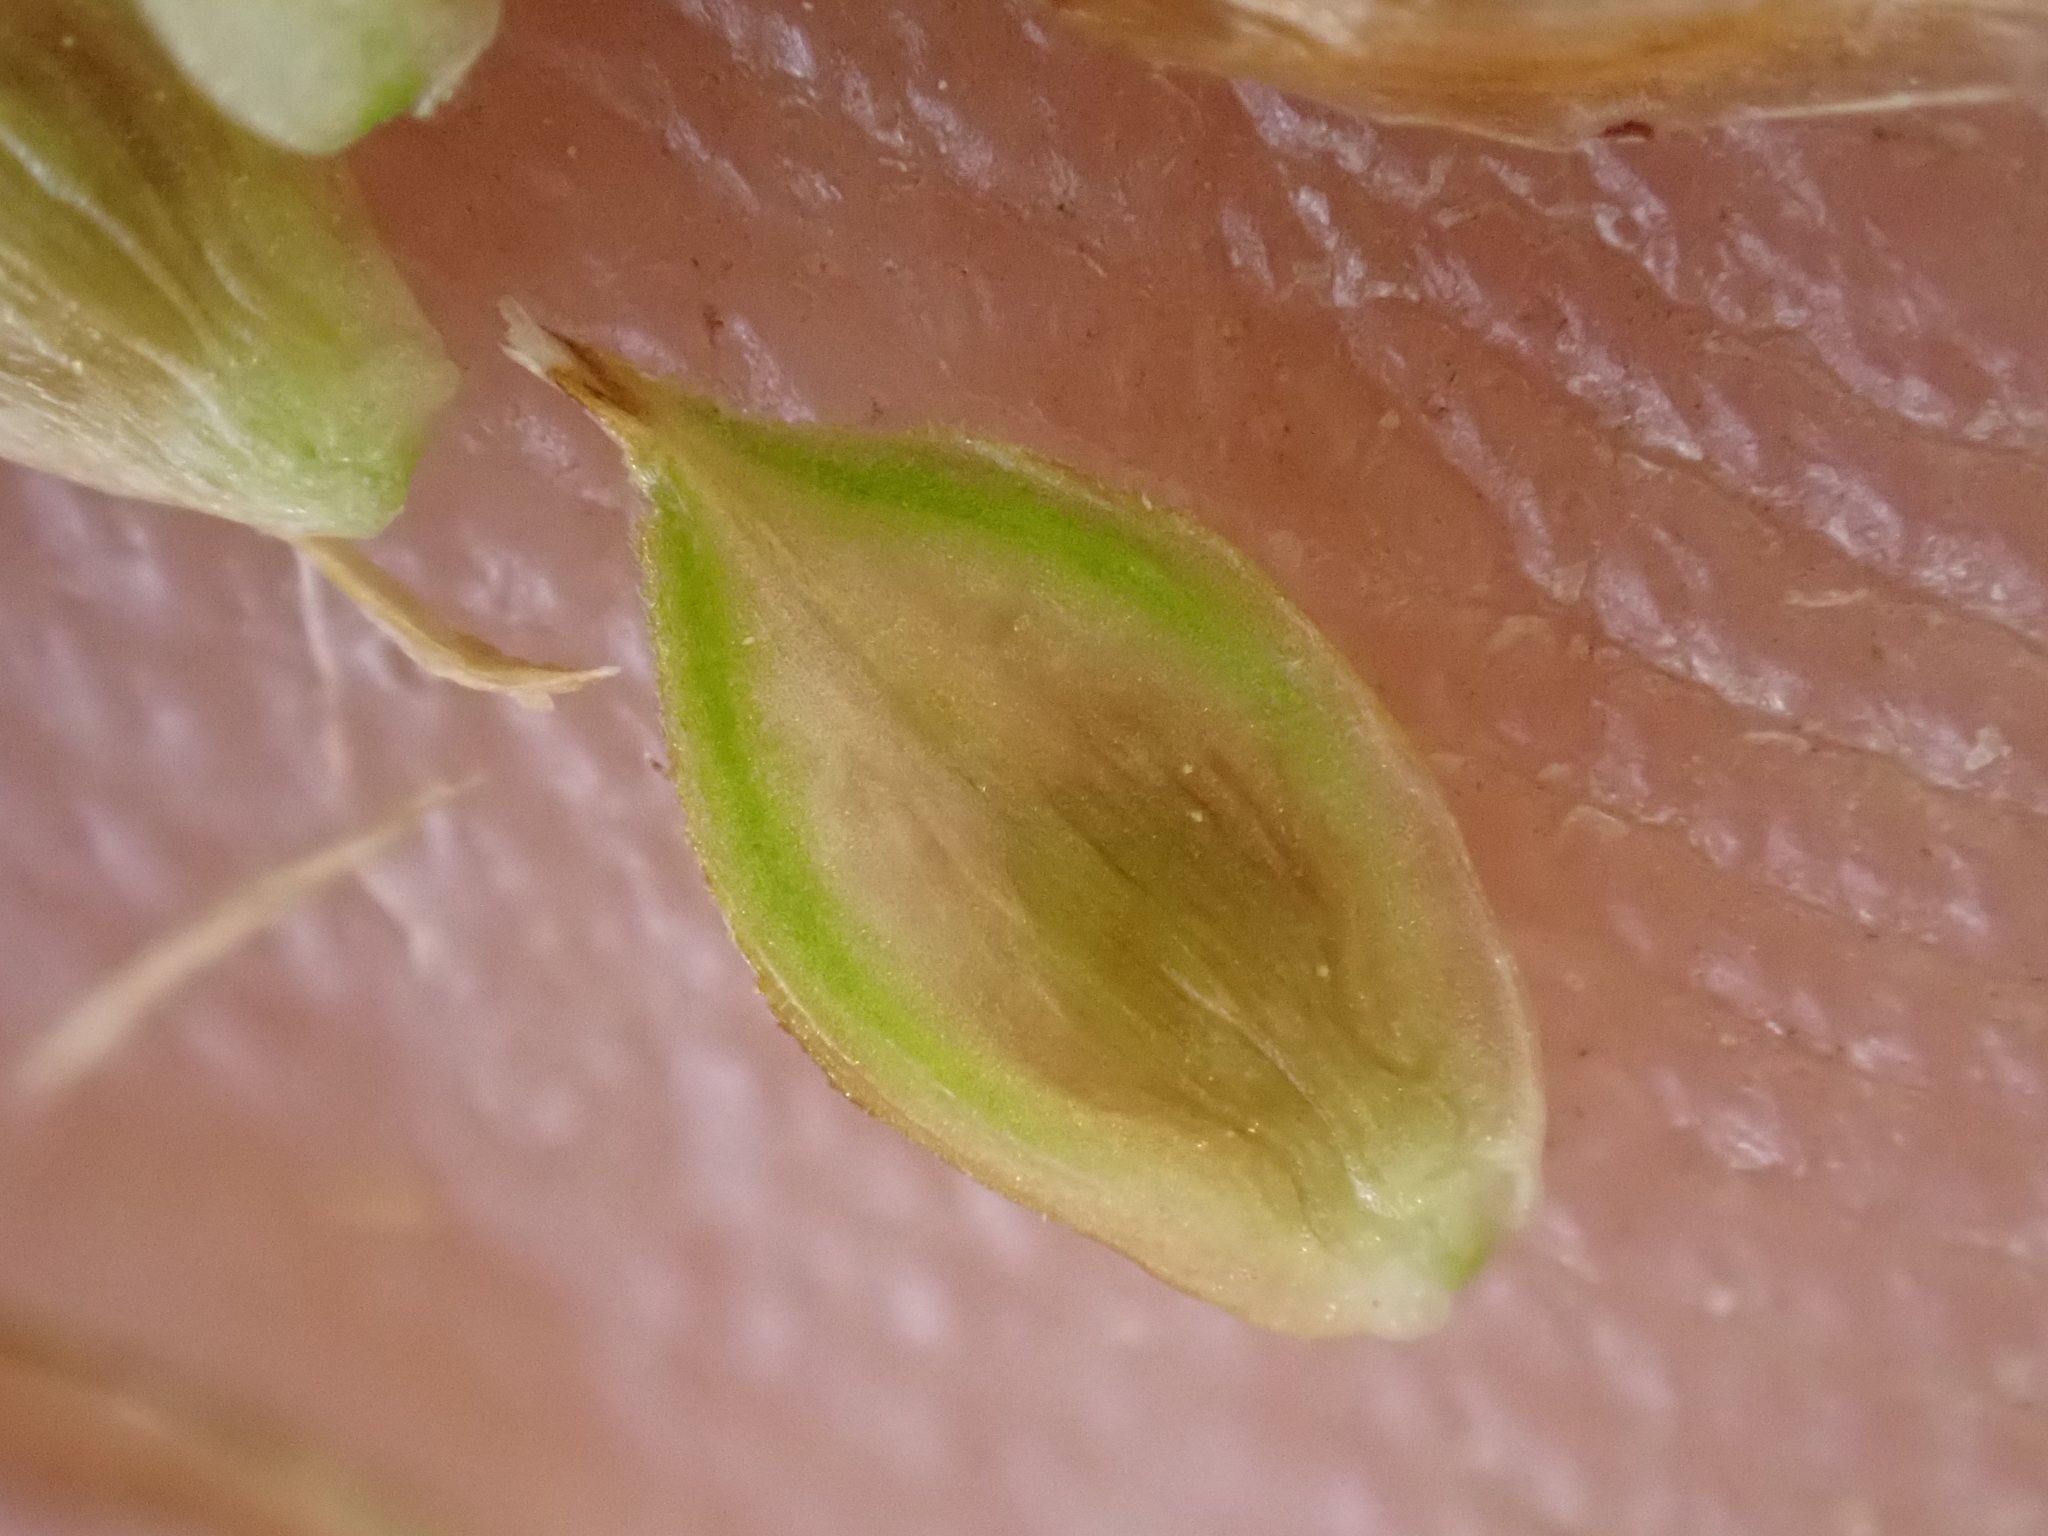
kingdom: Plantae
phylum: Tracheophyta
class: Liliopsida
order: Poales
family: Cyperaceae
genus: Carex
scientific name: Carex tahoensis
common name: Lake tahoe sedge
